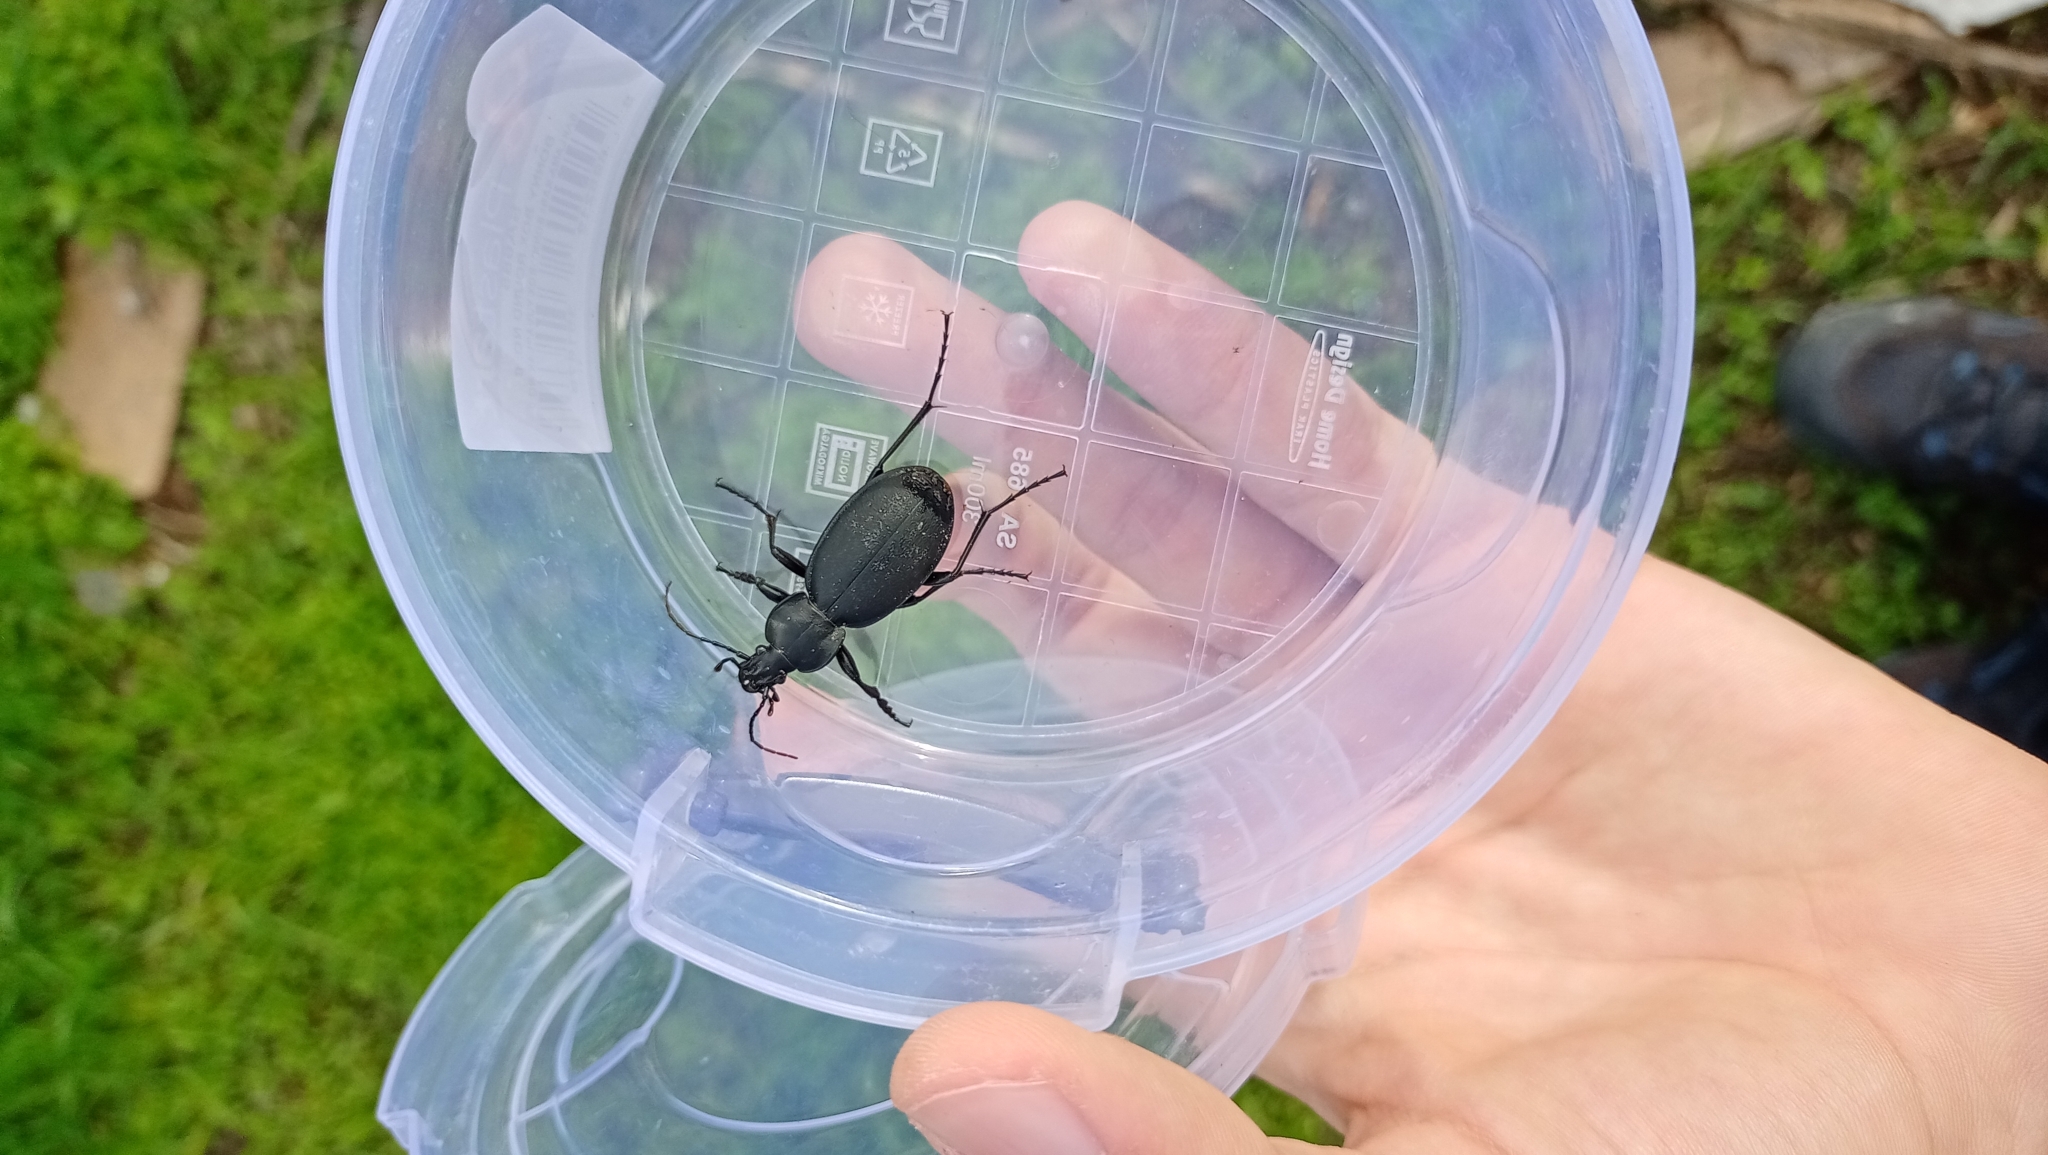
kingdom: Animalia
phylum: Arthropoda
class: Insecta
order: Coleoptera
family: Carabidae
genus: Carabus
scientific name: Carabus coriaceus
